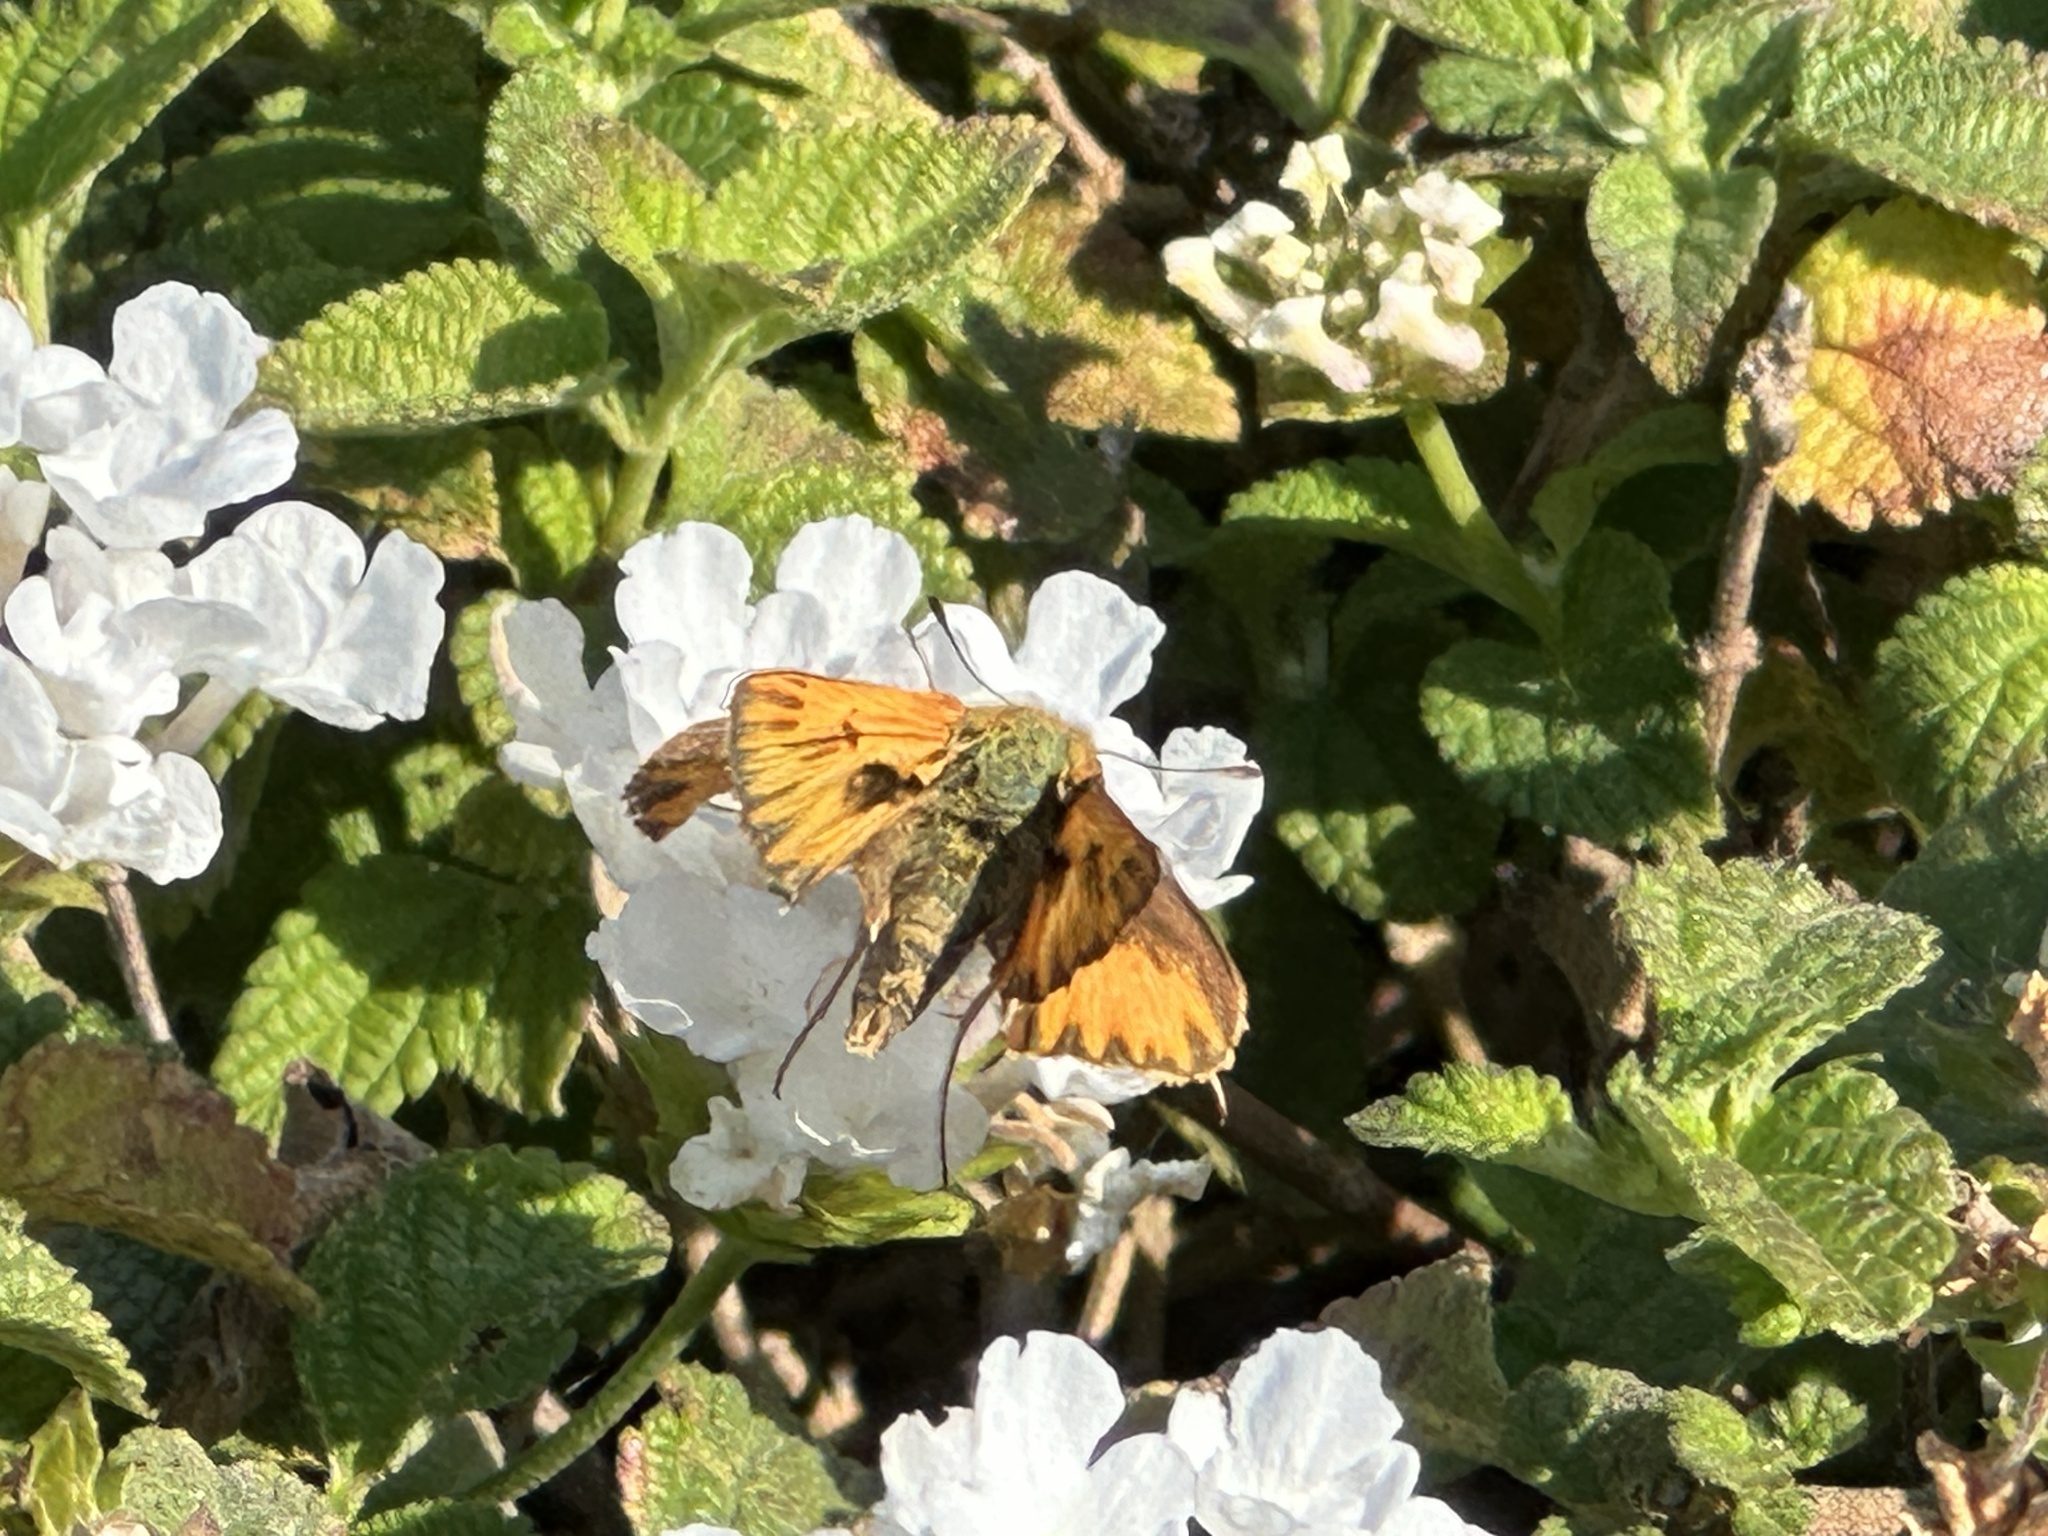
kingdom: Animalia
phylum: Arthropoda
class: Insecta
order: Lepidoptera
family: Hesperiidae
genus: Hylephila
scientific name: Hylephila phyleus
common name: Fiery skipper
